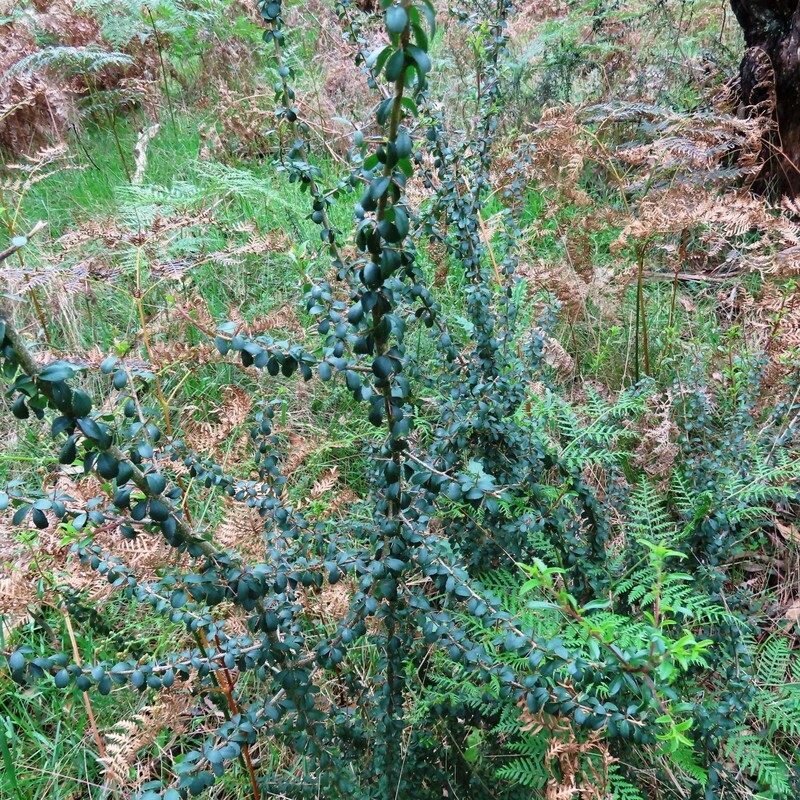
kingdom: Plantae
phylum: Tracheophyta
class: Magnoliopsida
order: Apiales
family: Pittosporaceae
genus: Bursaria
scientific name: Bursaria spinosa
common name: Australian blackthorn
